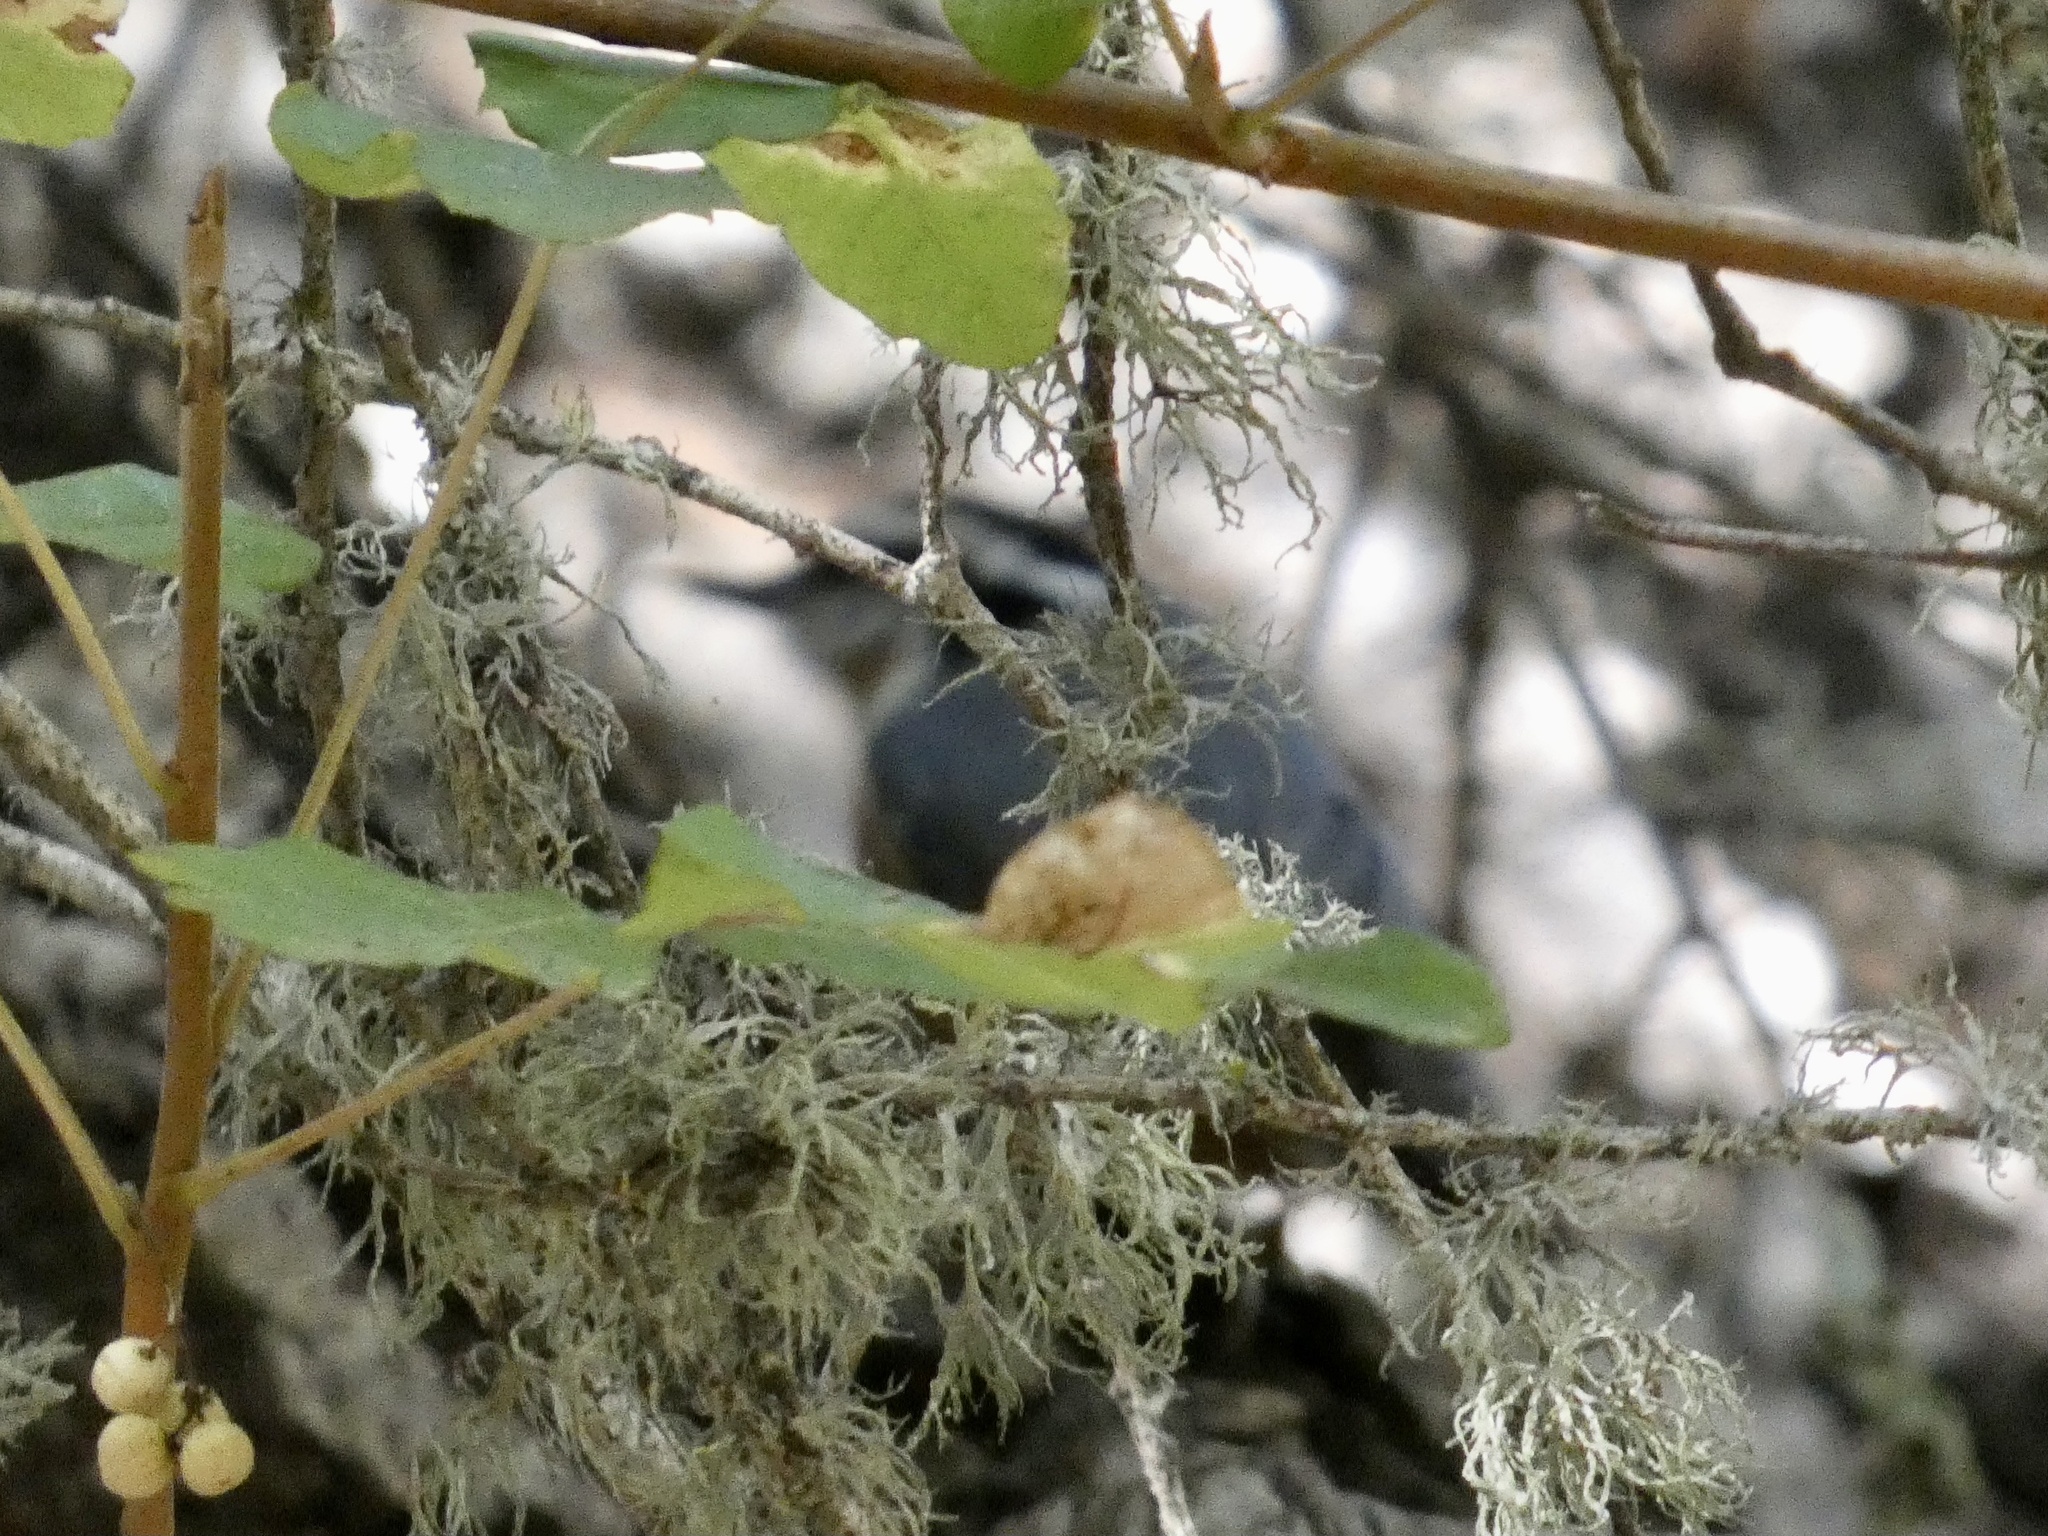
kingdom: Animalia
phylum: Chordata
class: Aves
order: Passeriformes
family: Sittidae
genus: Sitta
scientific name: Sitta canadensis
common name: Red-breasted nuthatch
